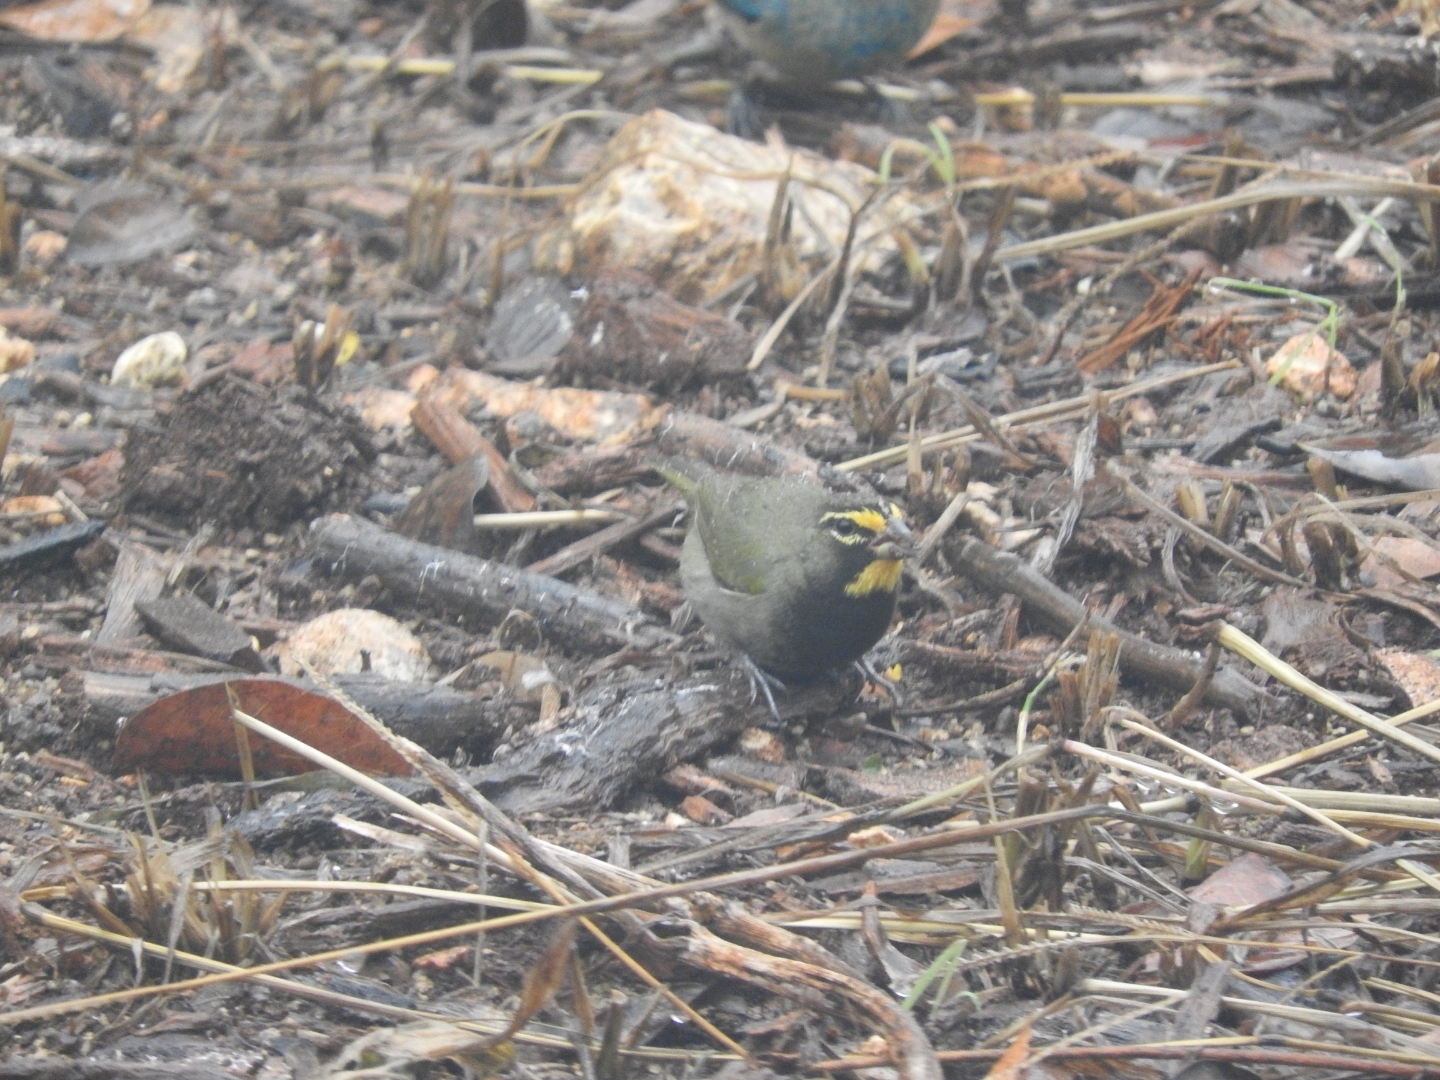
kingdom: Animalia
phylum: Chordata
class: Aves
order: Passeriformes
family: Thraupidae
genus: Tiaris
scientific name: Tiaris olivaceus
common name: Yellow-faced grassquit
